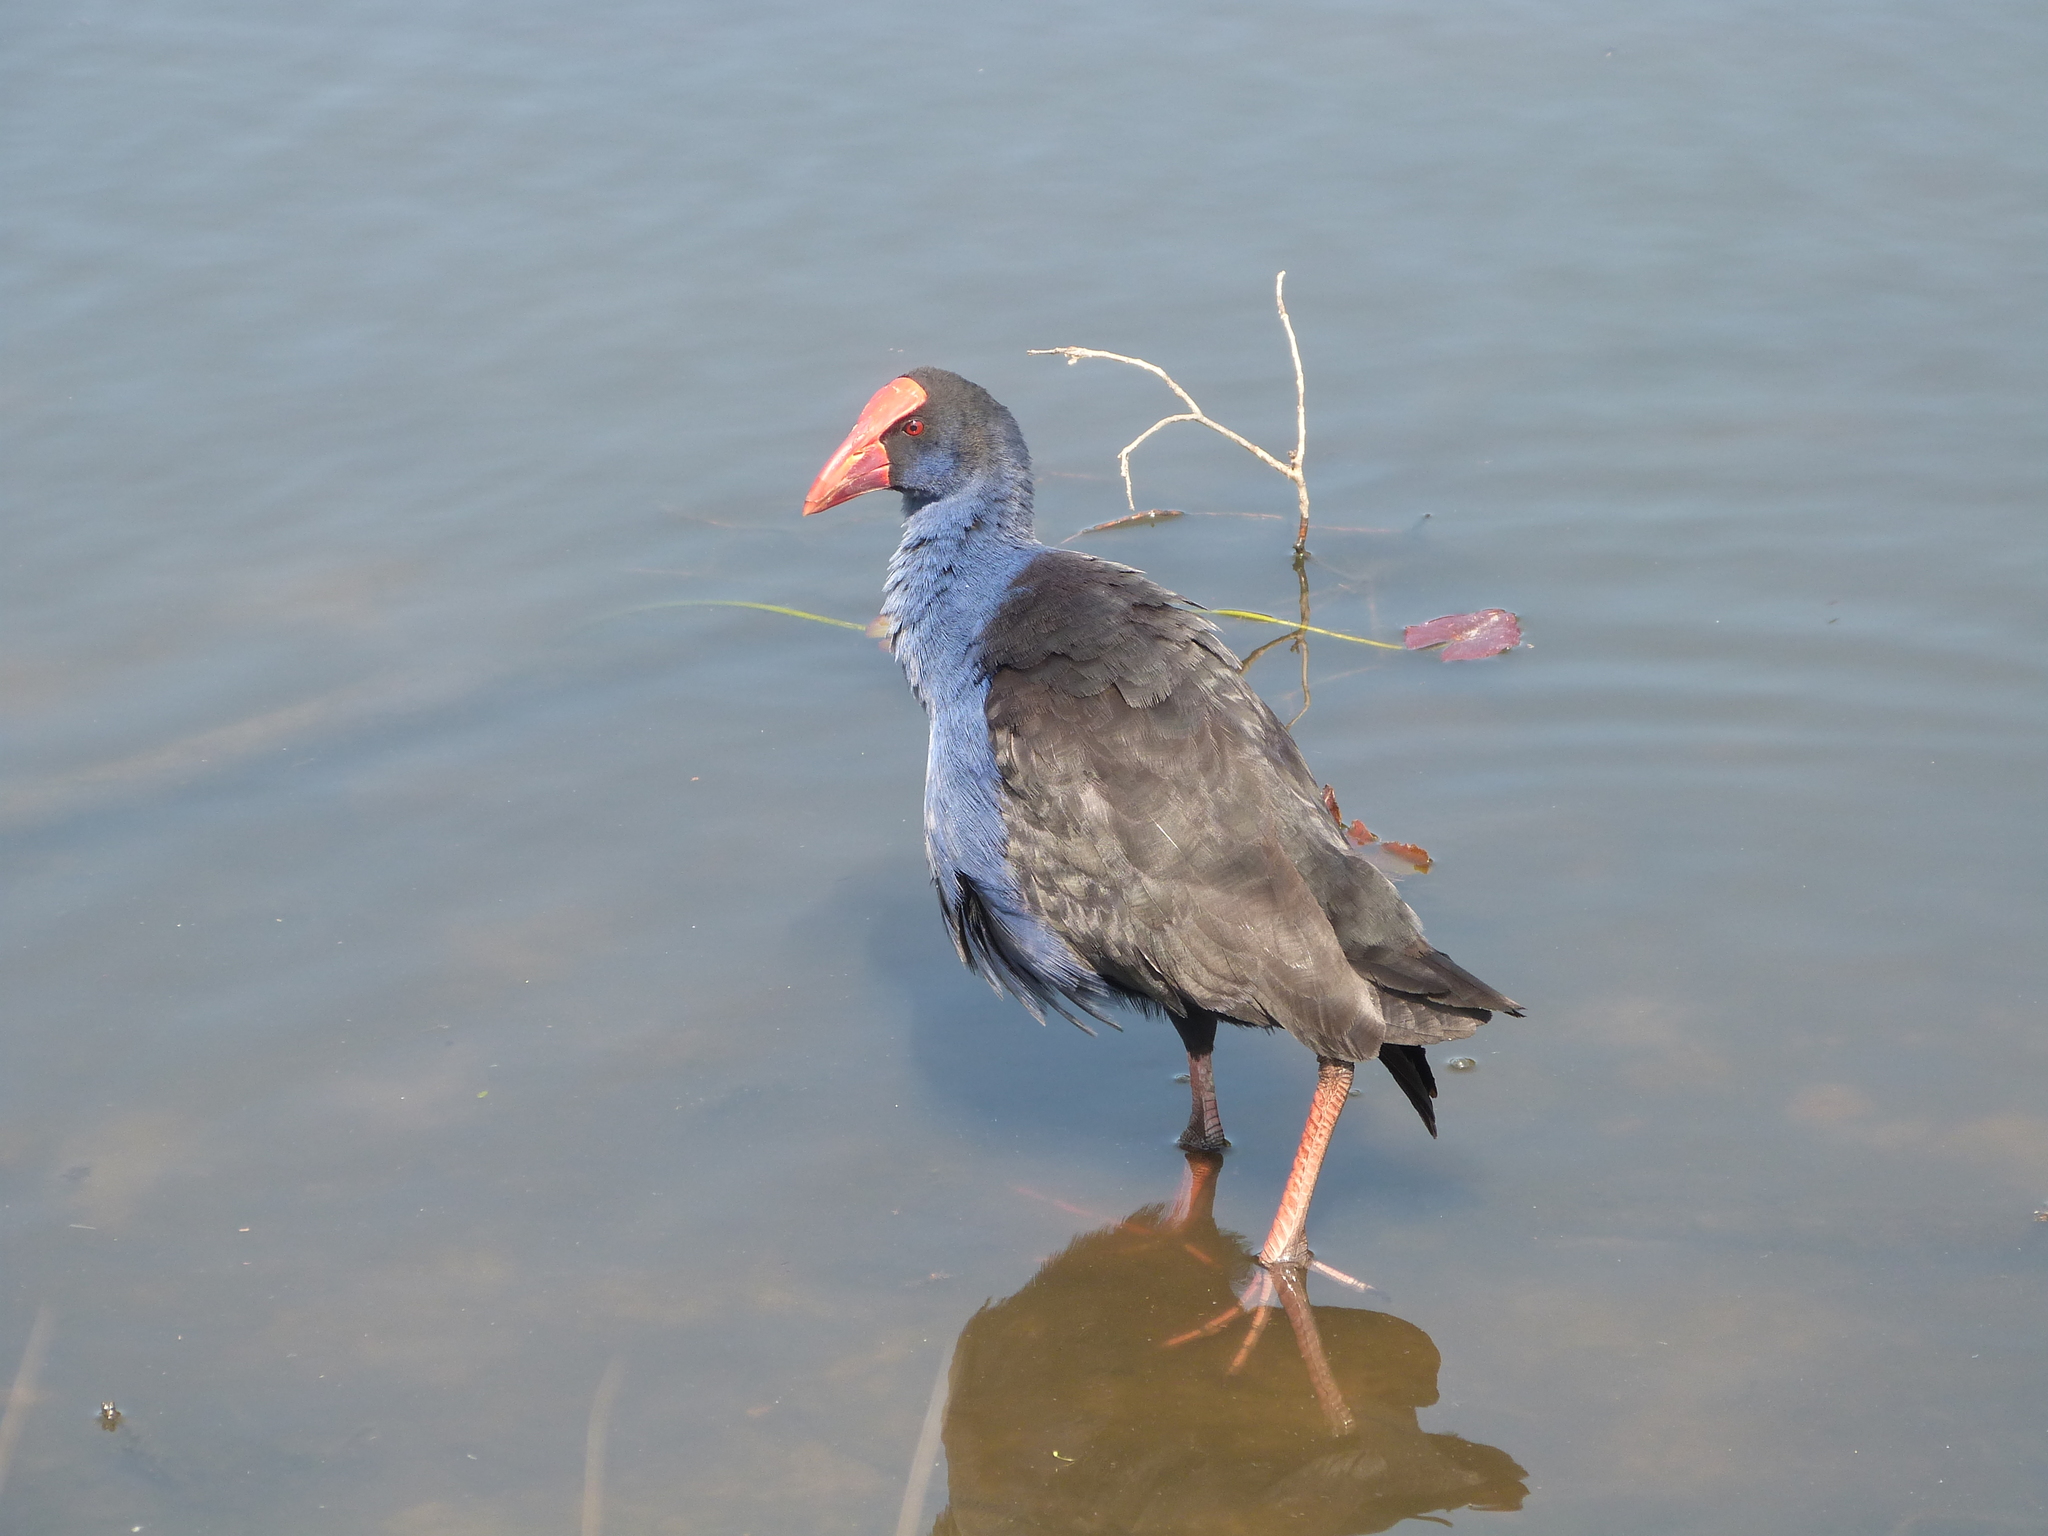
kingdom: Animalia
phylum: Chordata
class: Aves
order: Gruiformes
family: Rallidae
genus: Porphyrio
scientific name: Porphyrio melanotus
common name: Australasian swamphen
